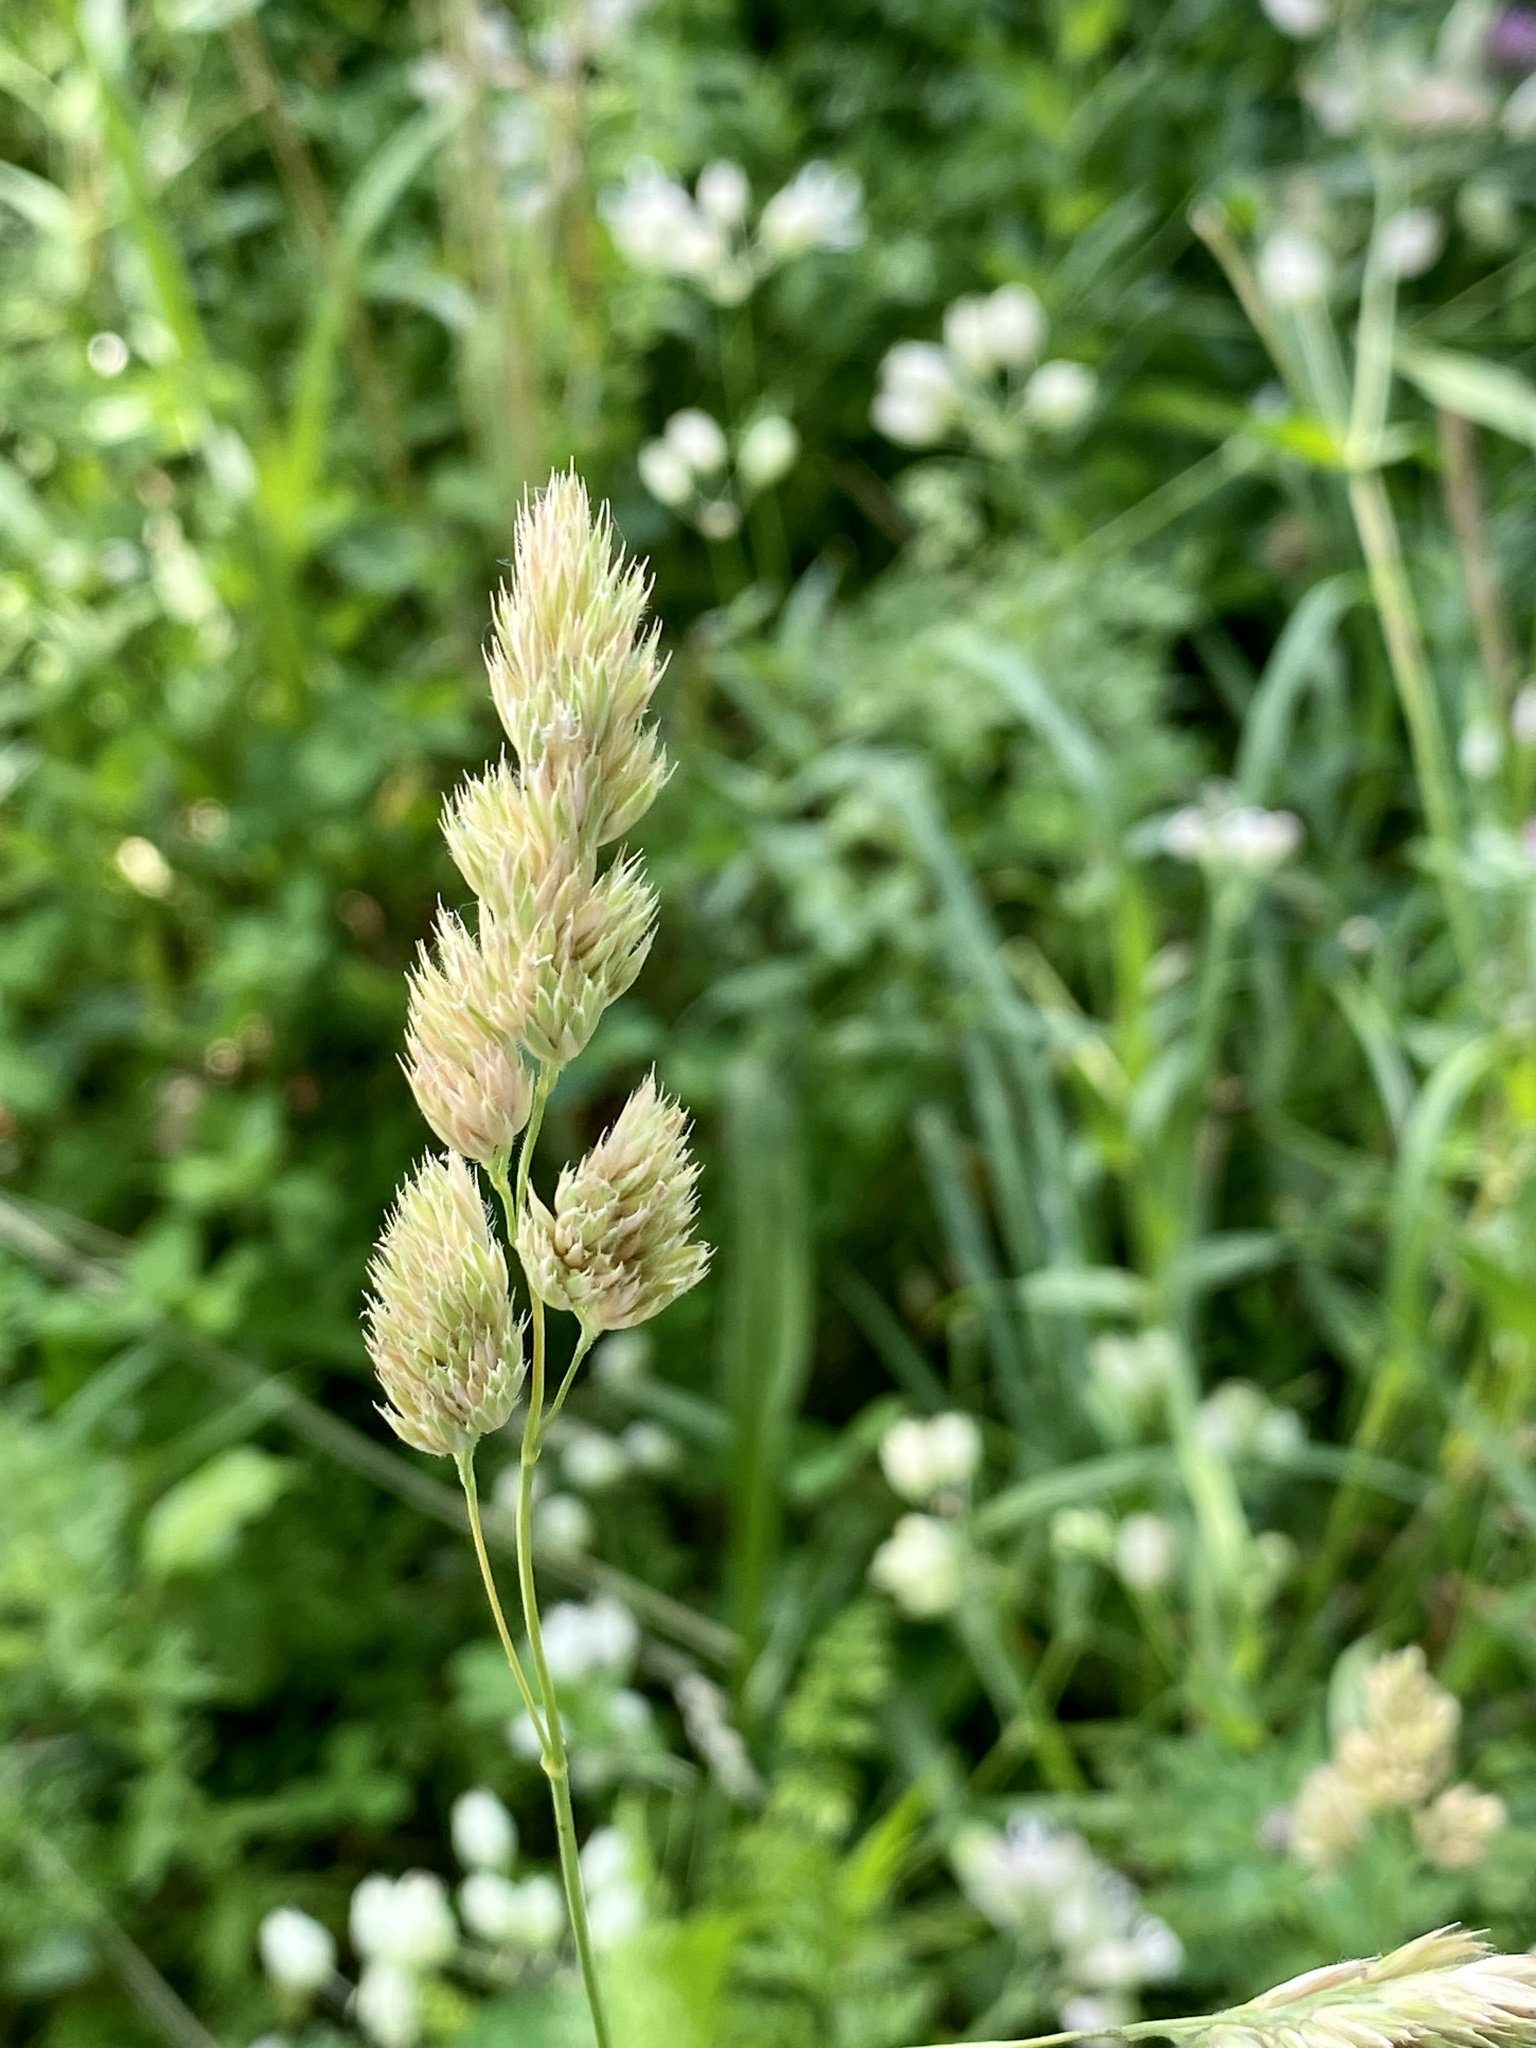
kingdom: Plantae
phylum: Tracheophyta
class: Liliopsida
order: Poales
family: Poaceae
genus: Dactylis
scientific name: Dactylis glomerata
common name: Orchardgrass
